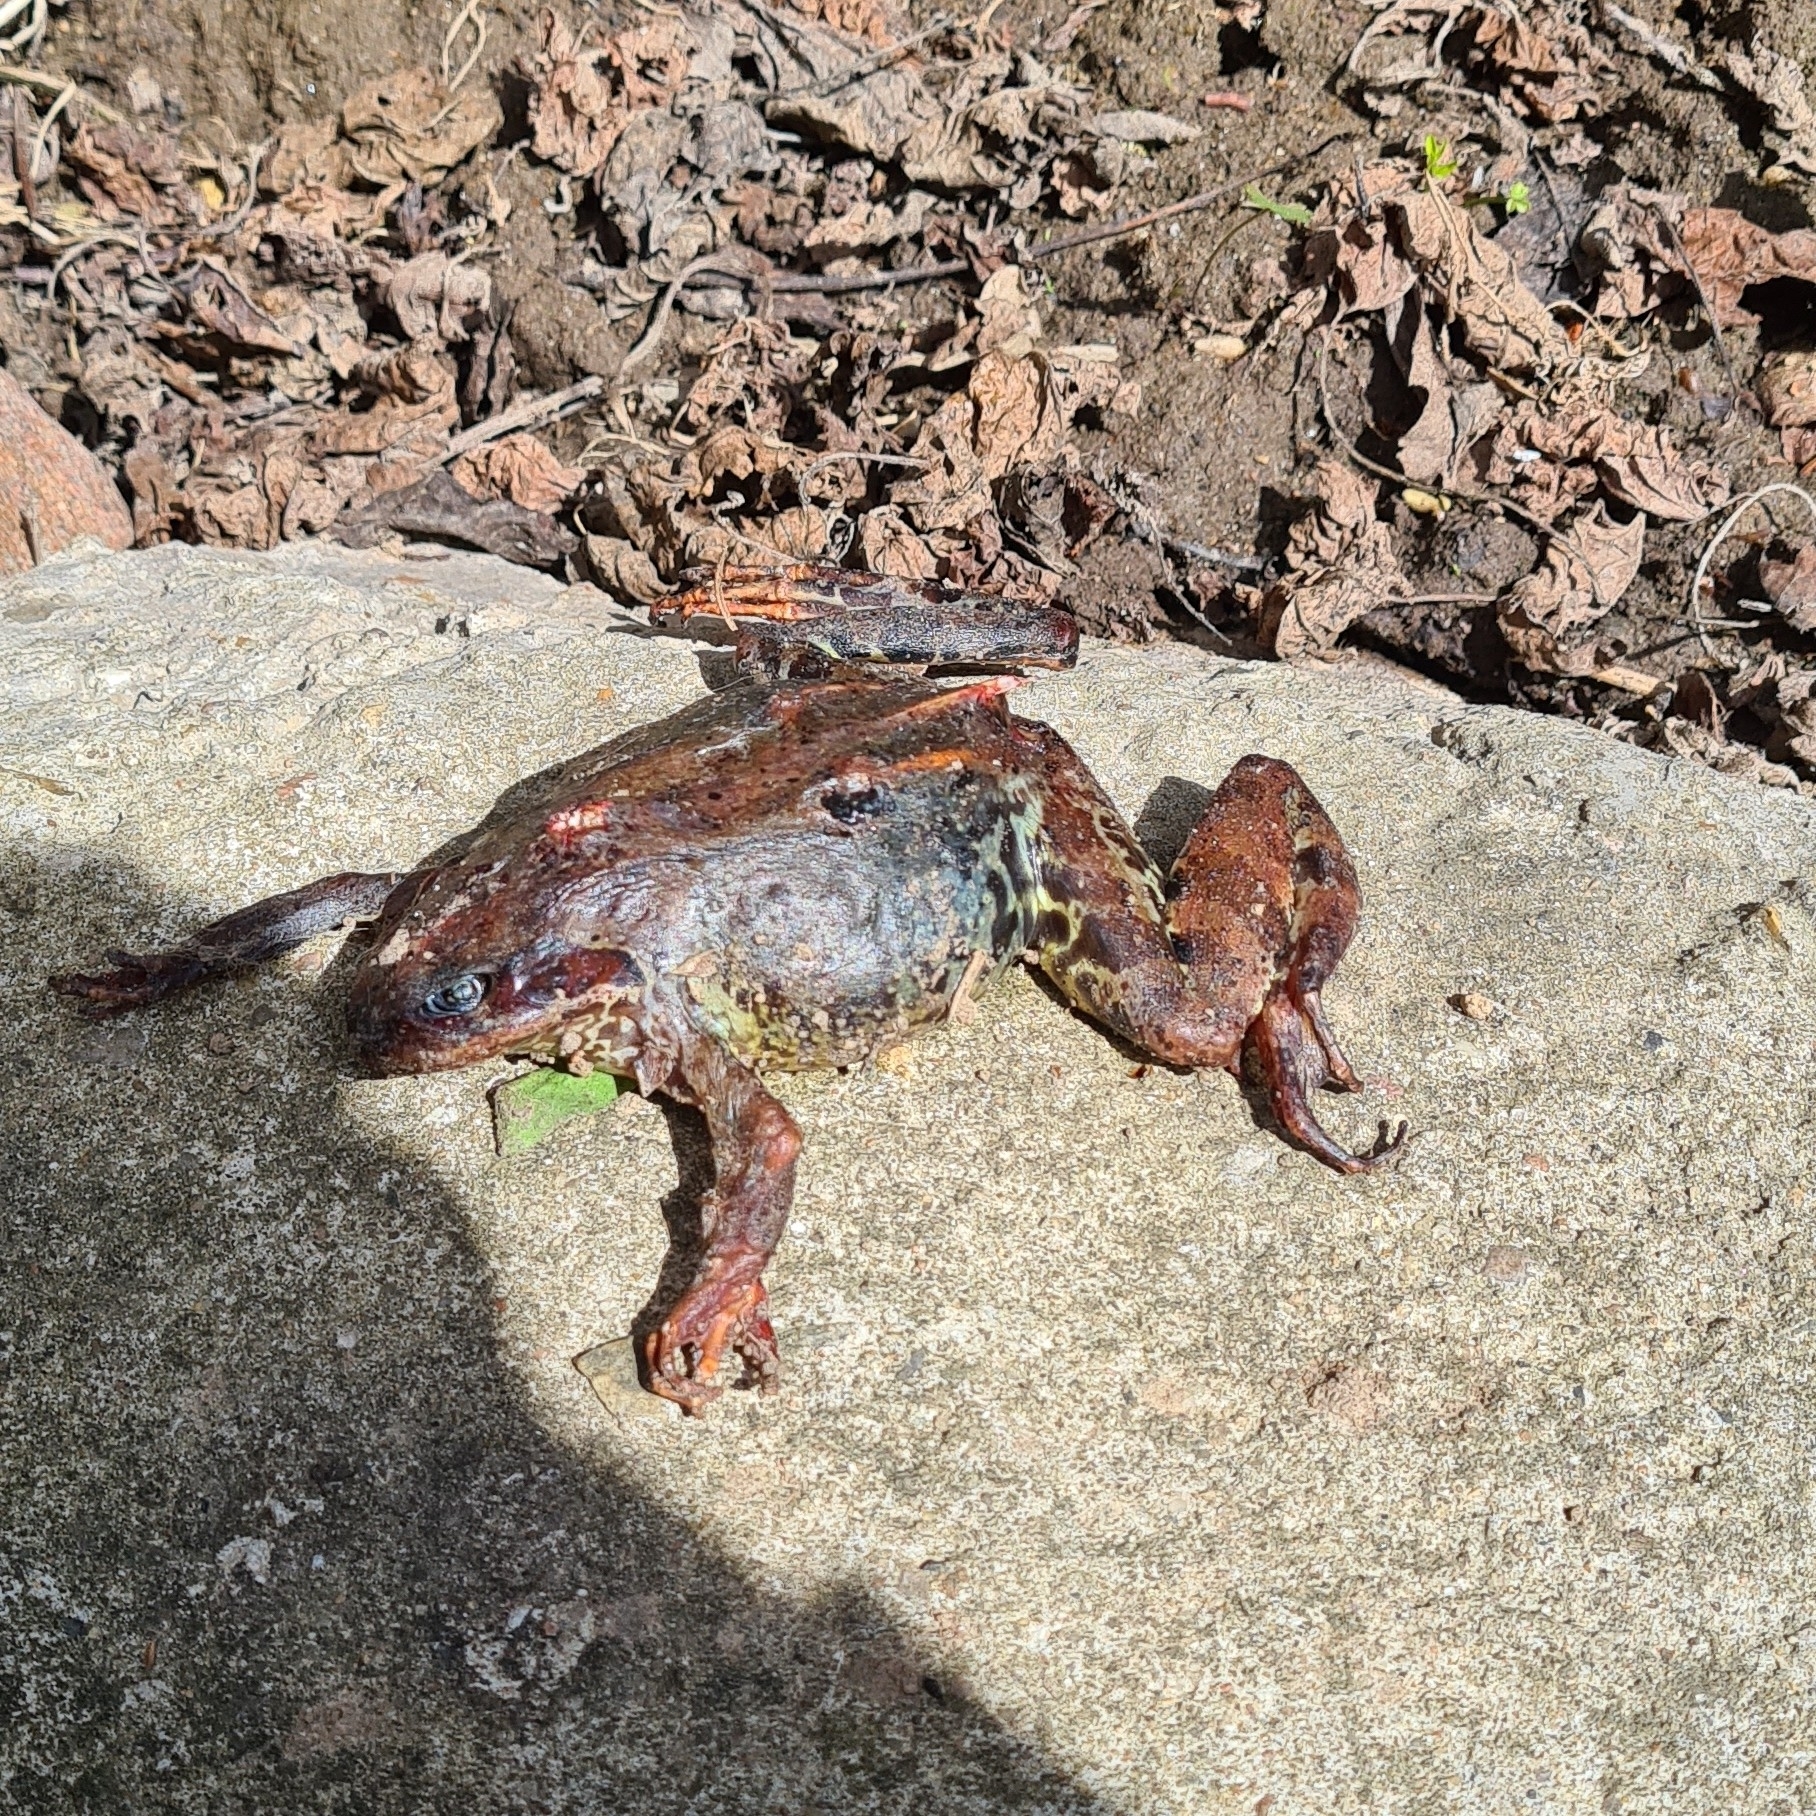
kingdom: Animalia
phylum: Chordata
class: Amphibia
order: Anura
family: Ranidae
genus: Rana
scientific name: Rana temporaria
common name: Common frog
